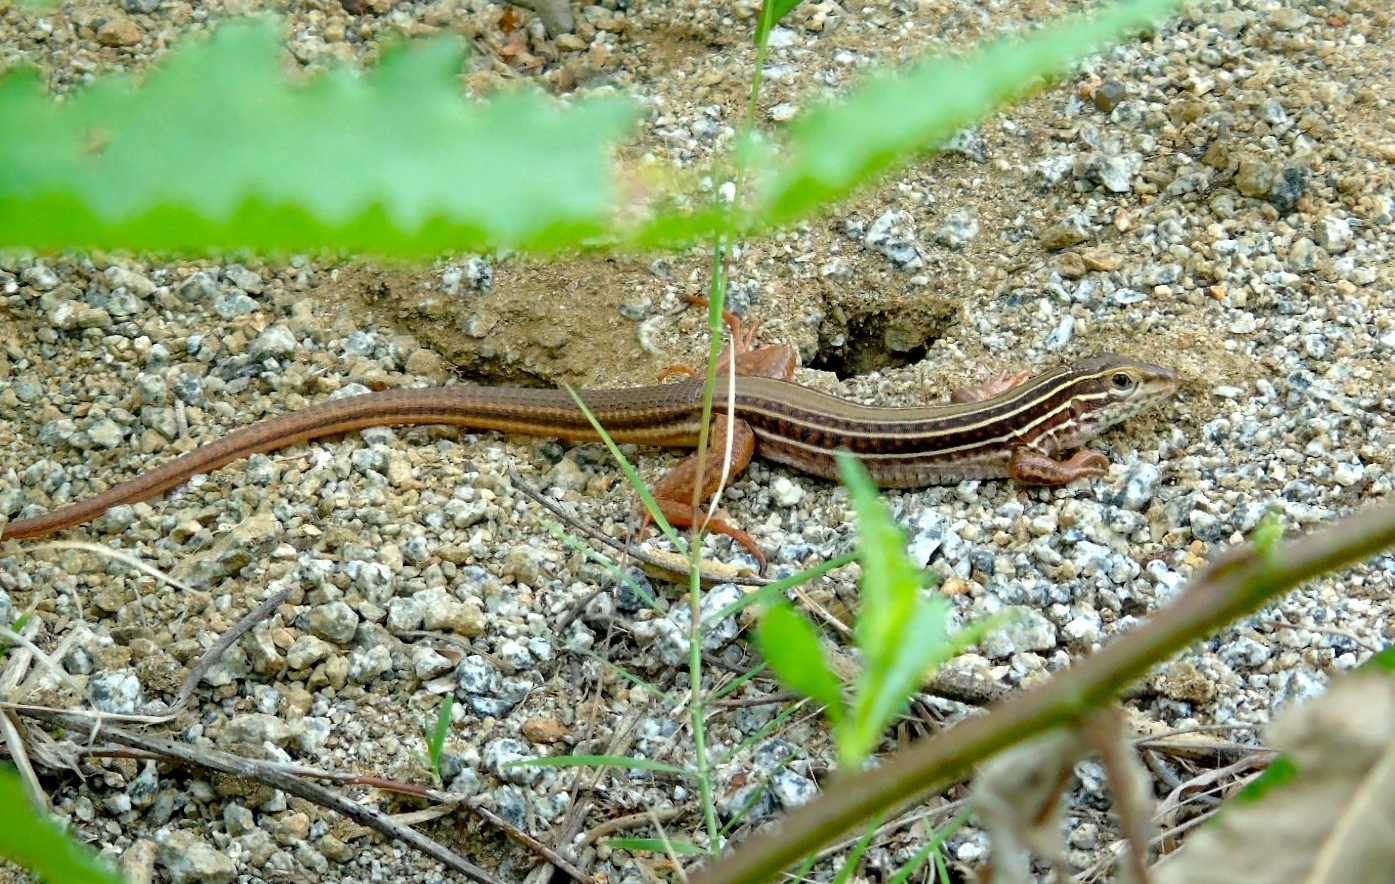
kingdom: Animalia
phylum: Chordata
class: Squamata
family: Teiidae
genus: Aspidoscelis
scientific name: Aspidoscelis costatus
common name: Western mexico whiptail
